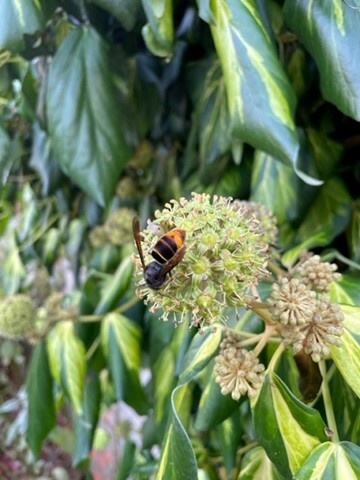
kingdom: Animalia
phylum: Arthropoda
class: Insecta
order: Hymenoptera
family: Vespidae
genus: Vespa
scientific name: Vespa velutina
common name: Asian hornet
